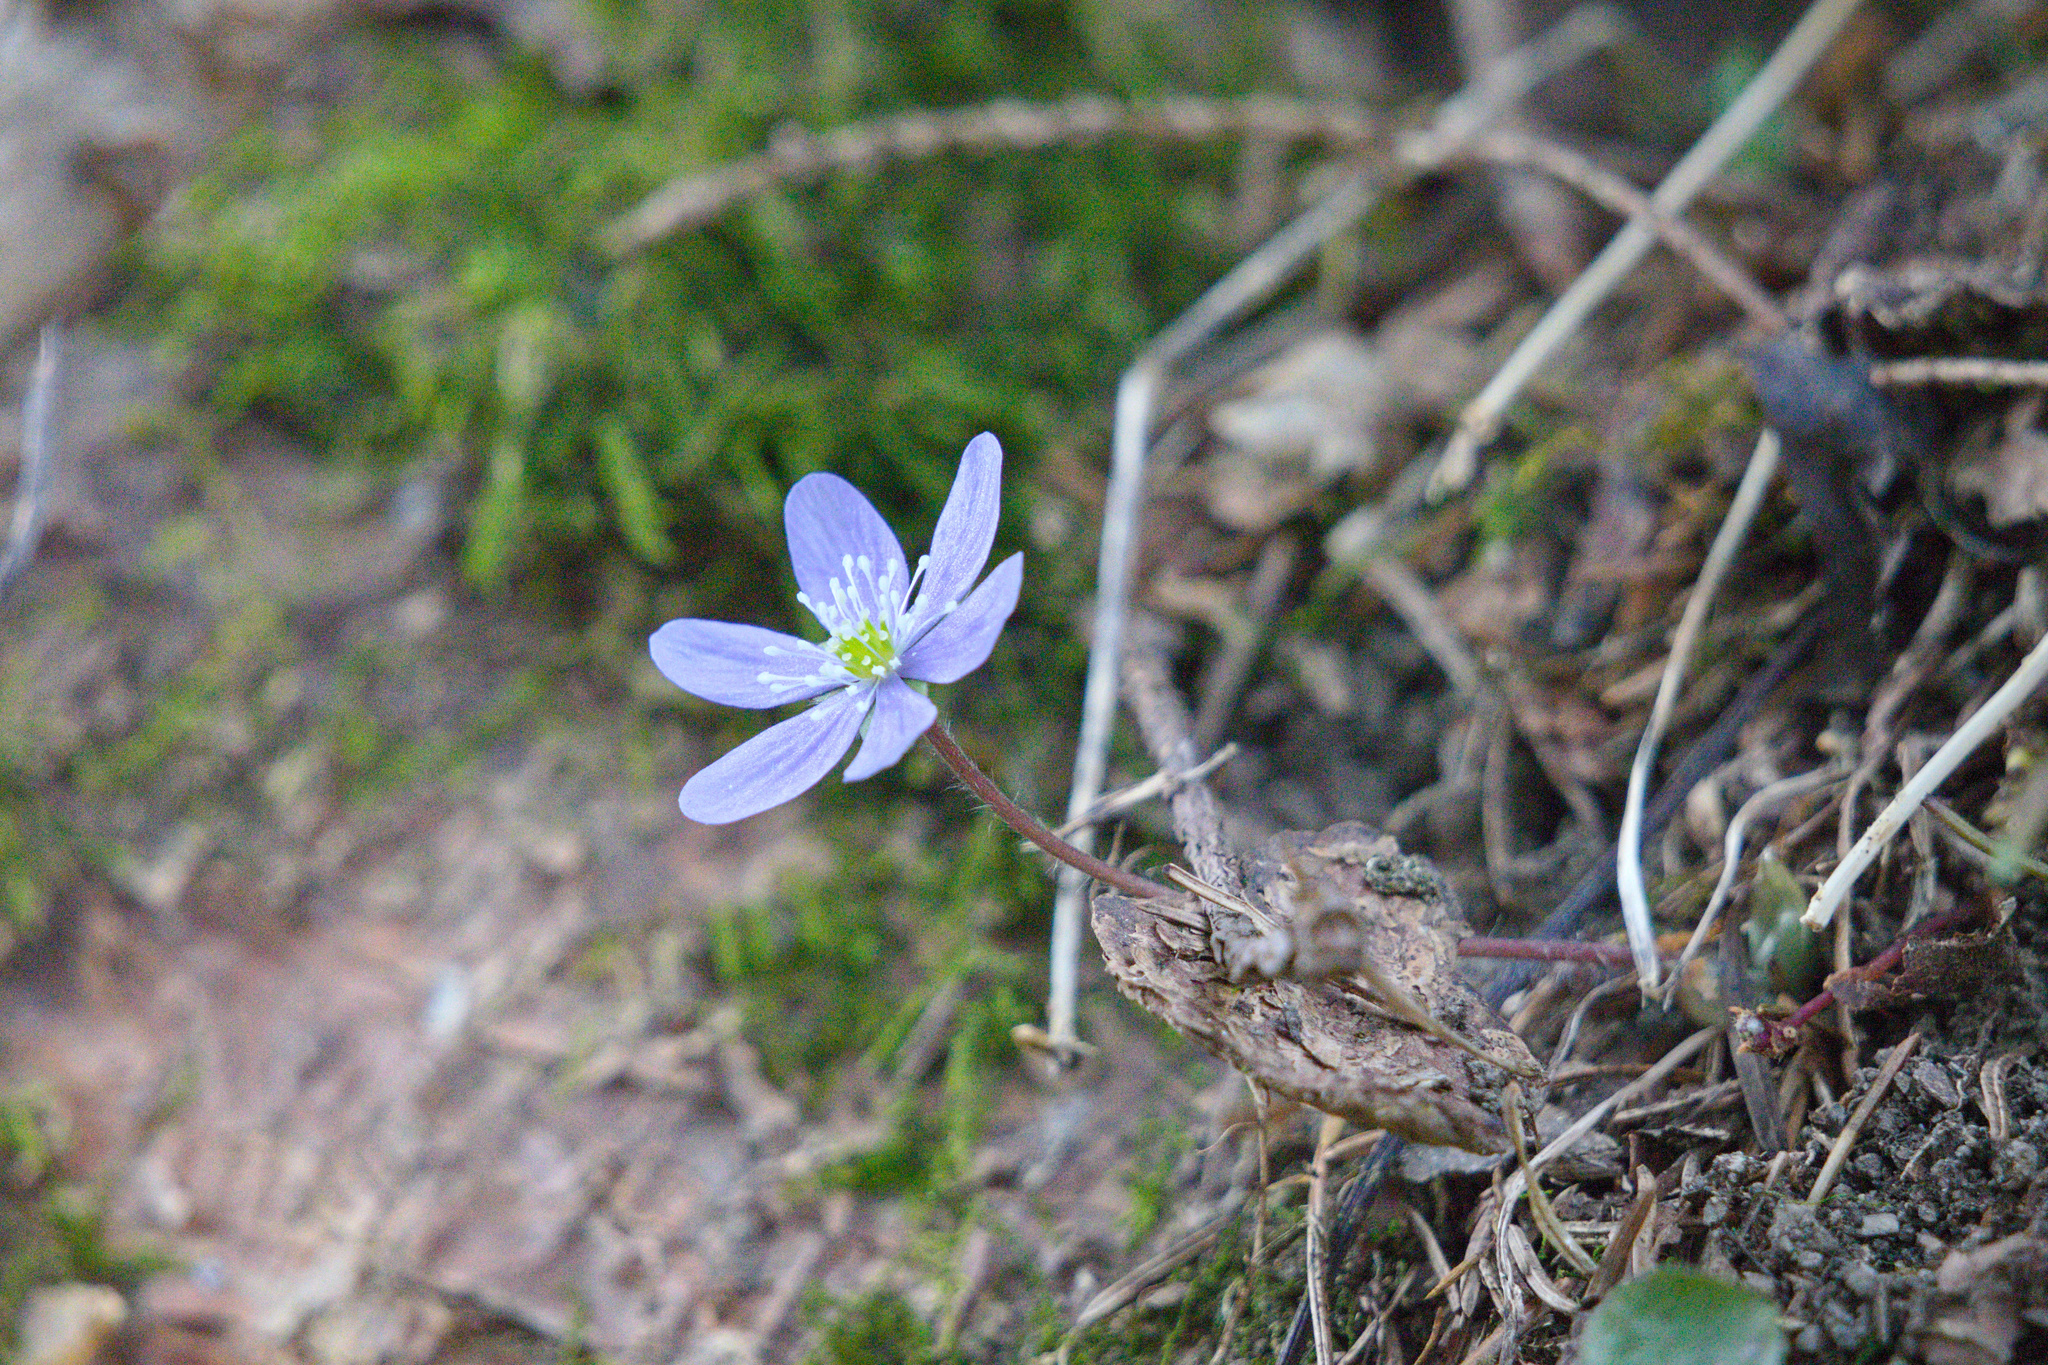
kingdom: Plantae
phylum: Tracheophyta
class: Magnoliopsida
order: Ranunculales
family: Ranunculaceae
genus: Hepatica
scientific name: Hepatica nobilis
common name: Liverleaf
